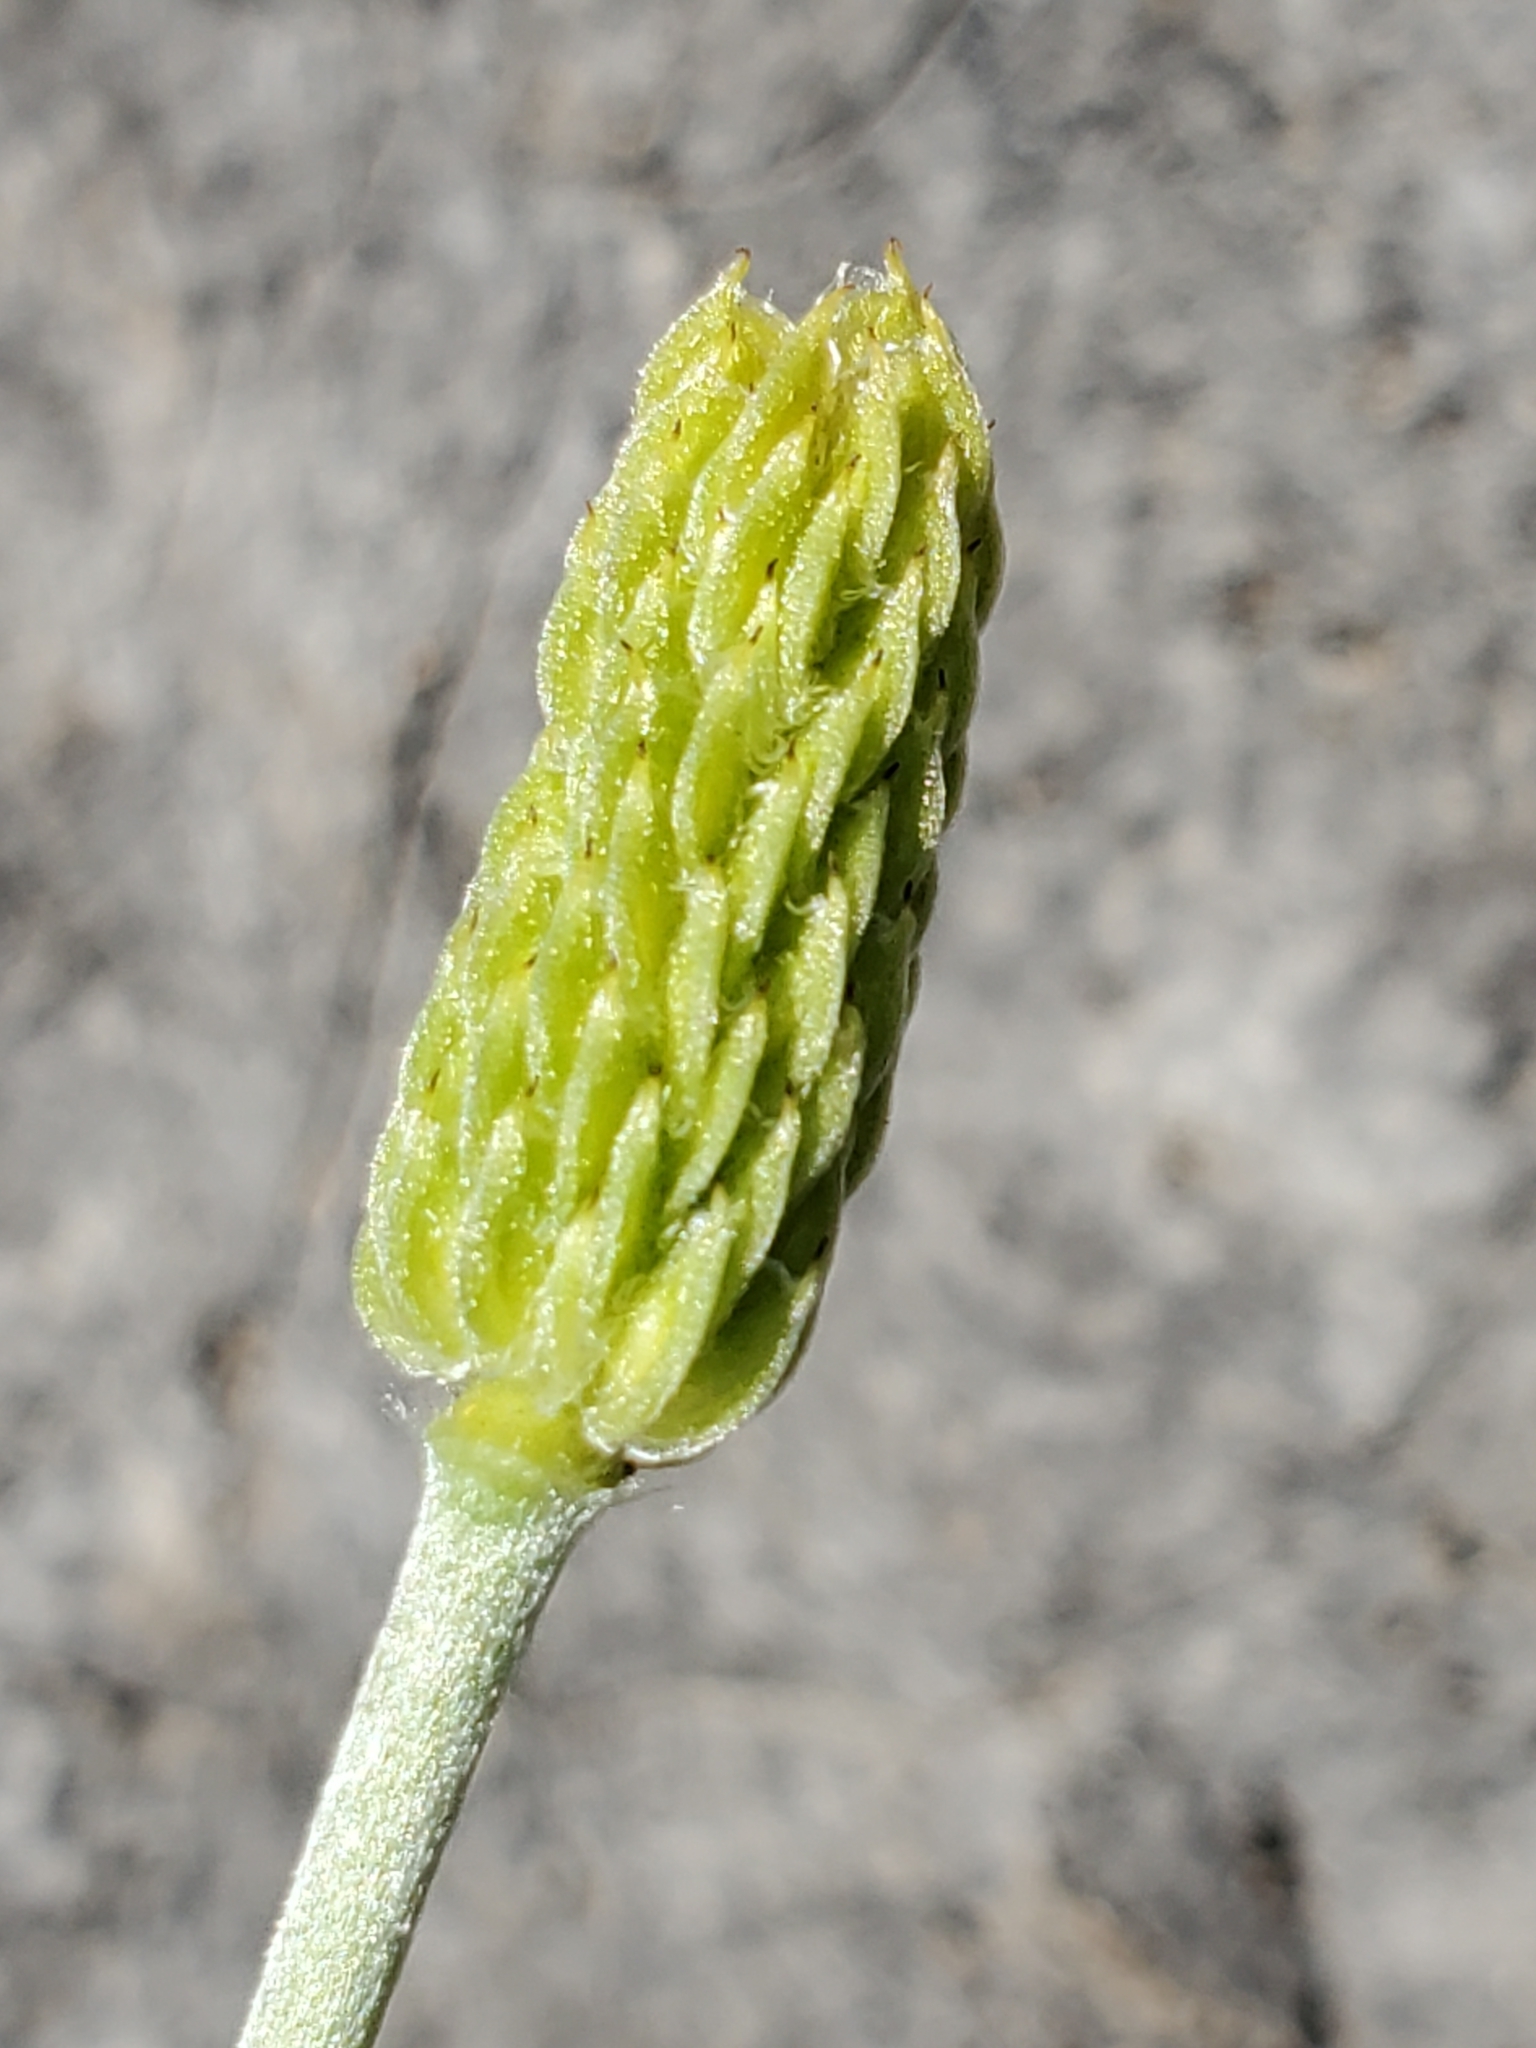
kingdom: Plantae
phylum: Tracheophyta
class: Magnoliopsida
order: Ranunculales
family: Ranunculaceae
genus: Anemone
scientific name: Anemone edwardsiana
